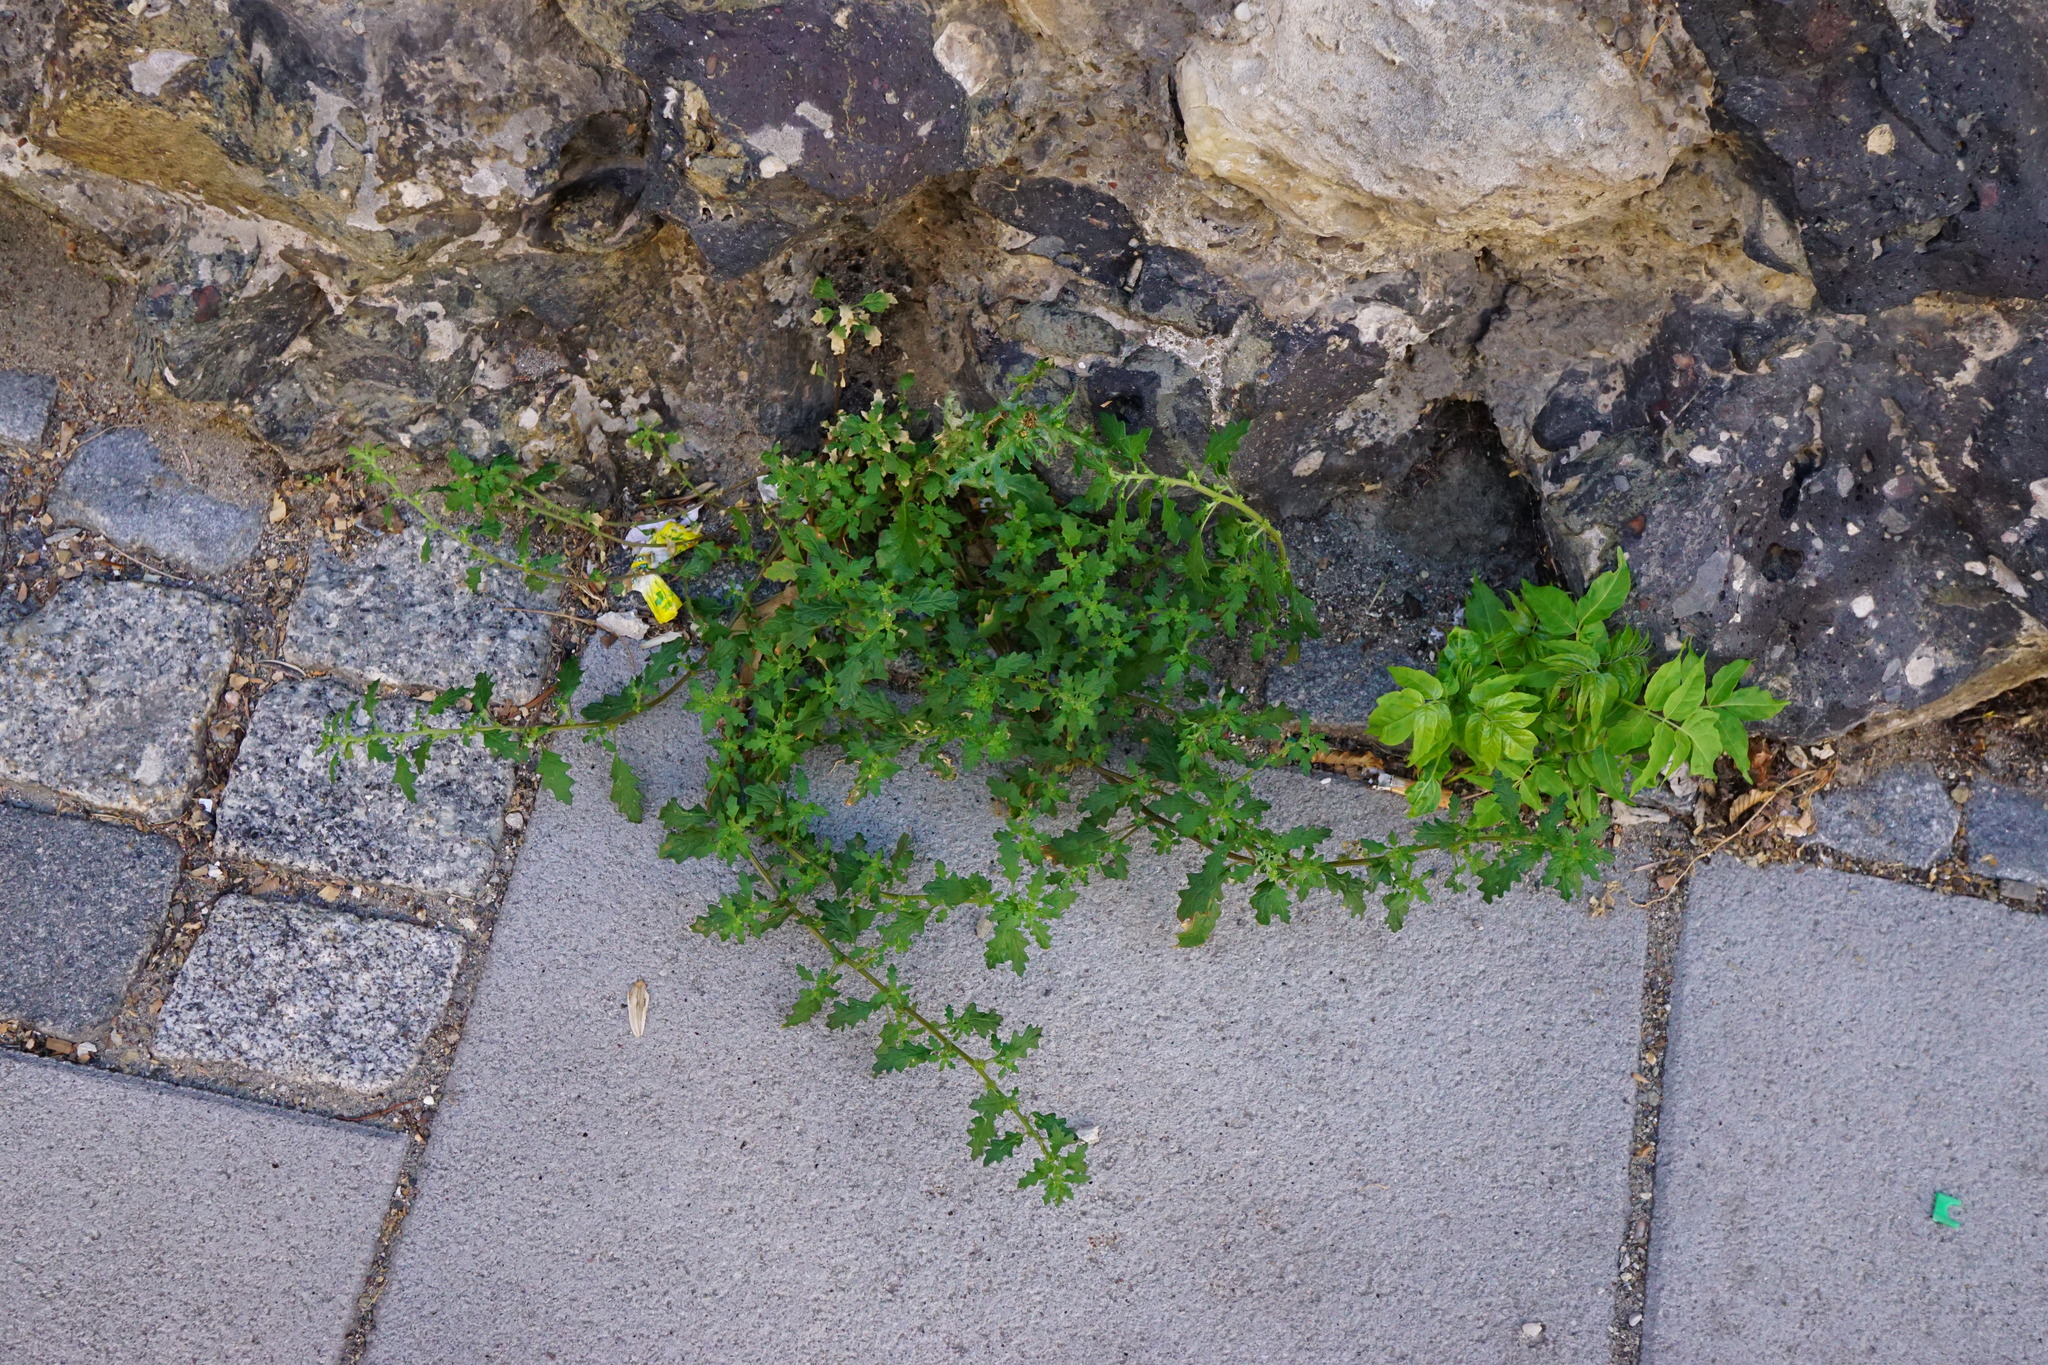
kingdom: Plantae
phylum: Tracheophyta
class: Magnoliopsida
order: Caryophyllales
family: Amaranthaceae
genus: Dysphania
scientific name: Dysphania pumilio
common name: Clammy goosefoot
